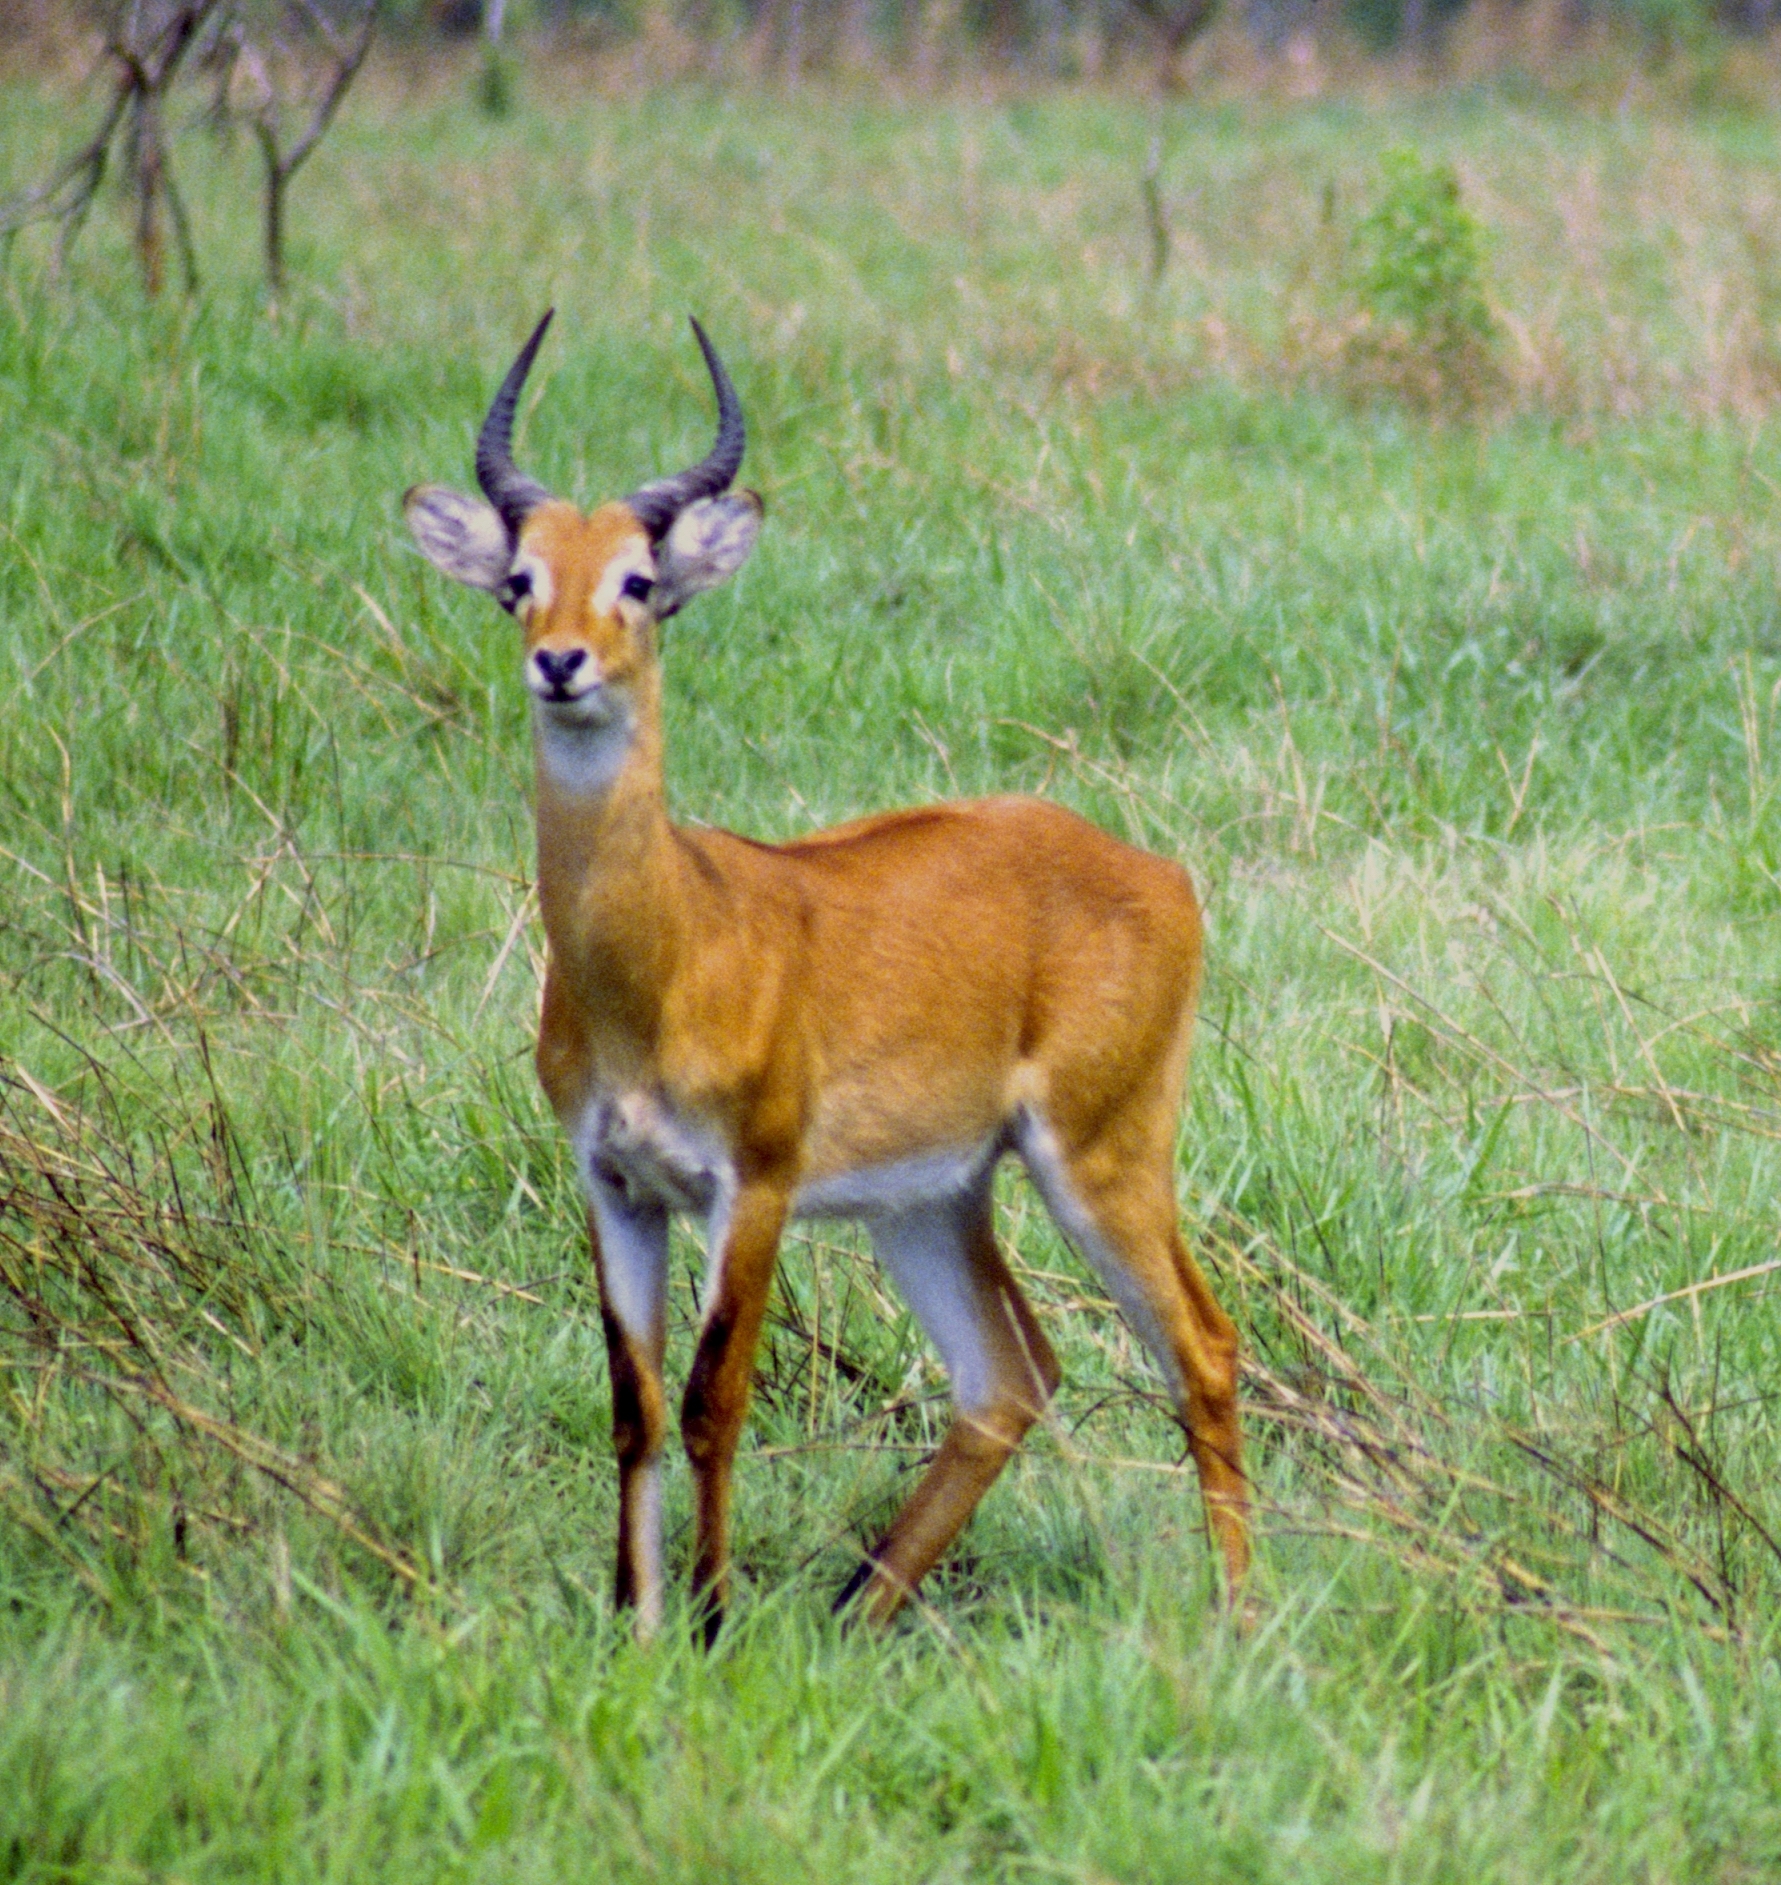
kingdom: Animalia
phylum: Chordata
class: Mammalia
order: Artiodactyla
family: Bovidae
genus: Kobus
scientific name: Kobus kob
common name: Kob
